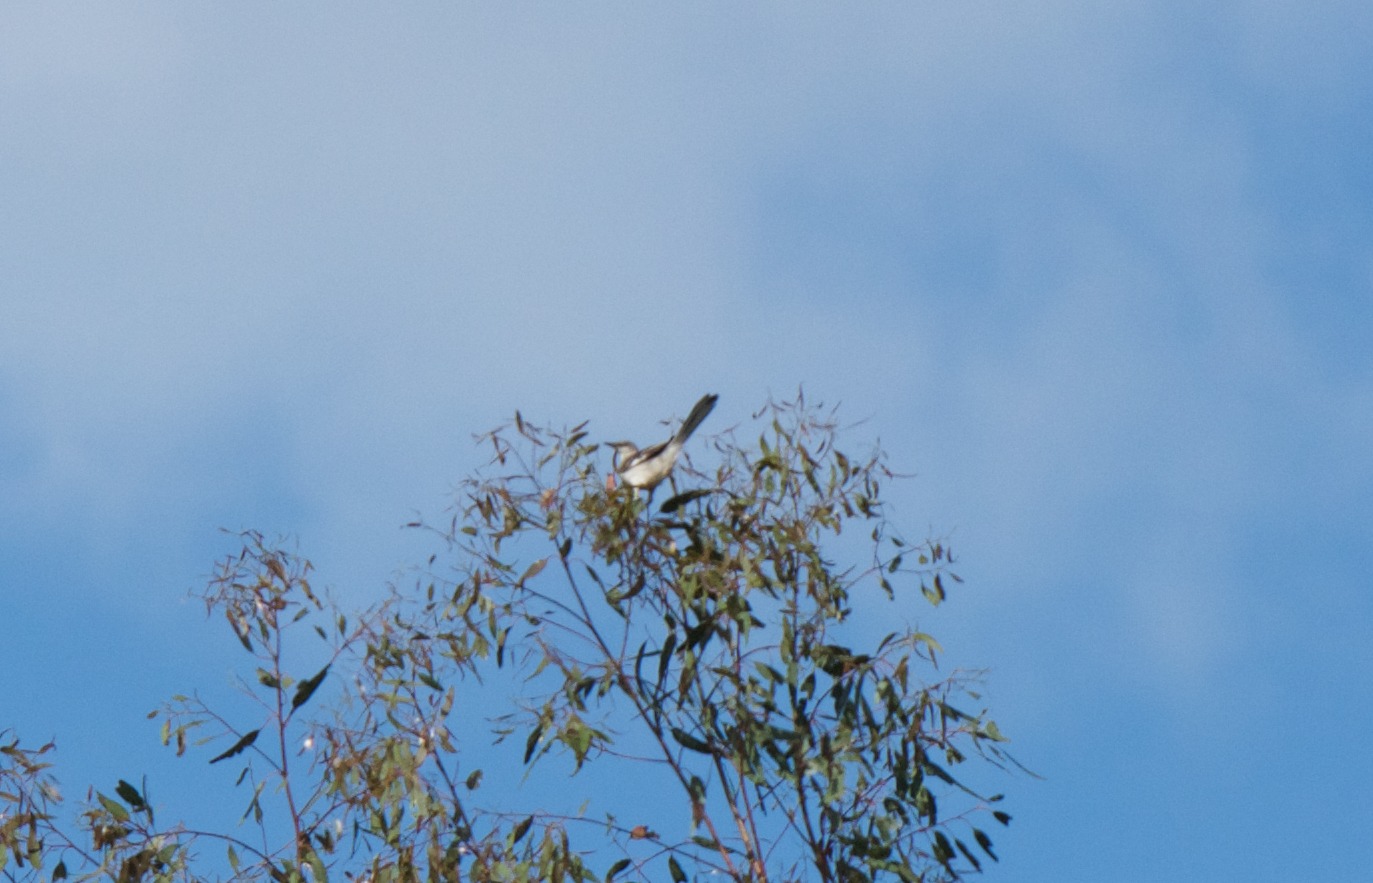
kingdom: Animalia
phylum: Chordata
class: Aves
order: Passeriformes
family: Mimidae
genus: Mimus
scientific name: Mimus polyglottos
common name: Northern mockingbird
